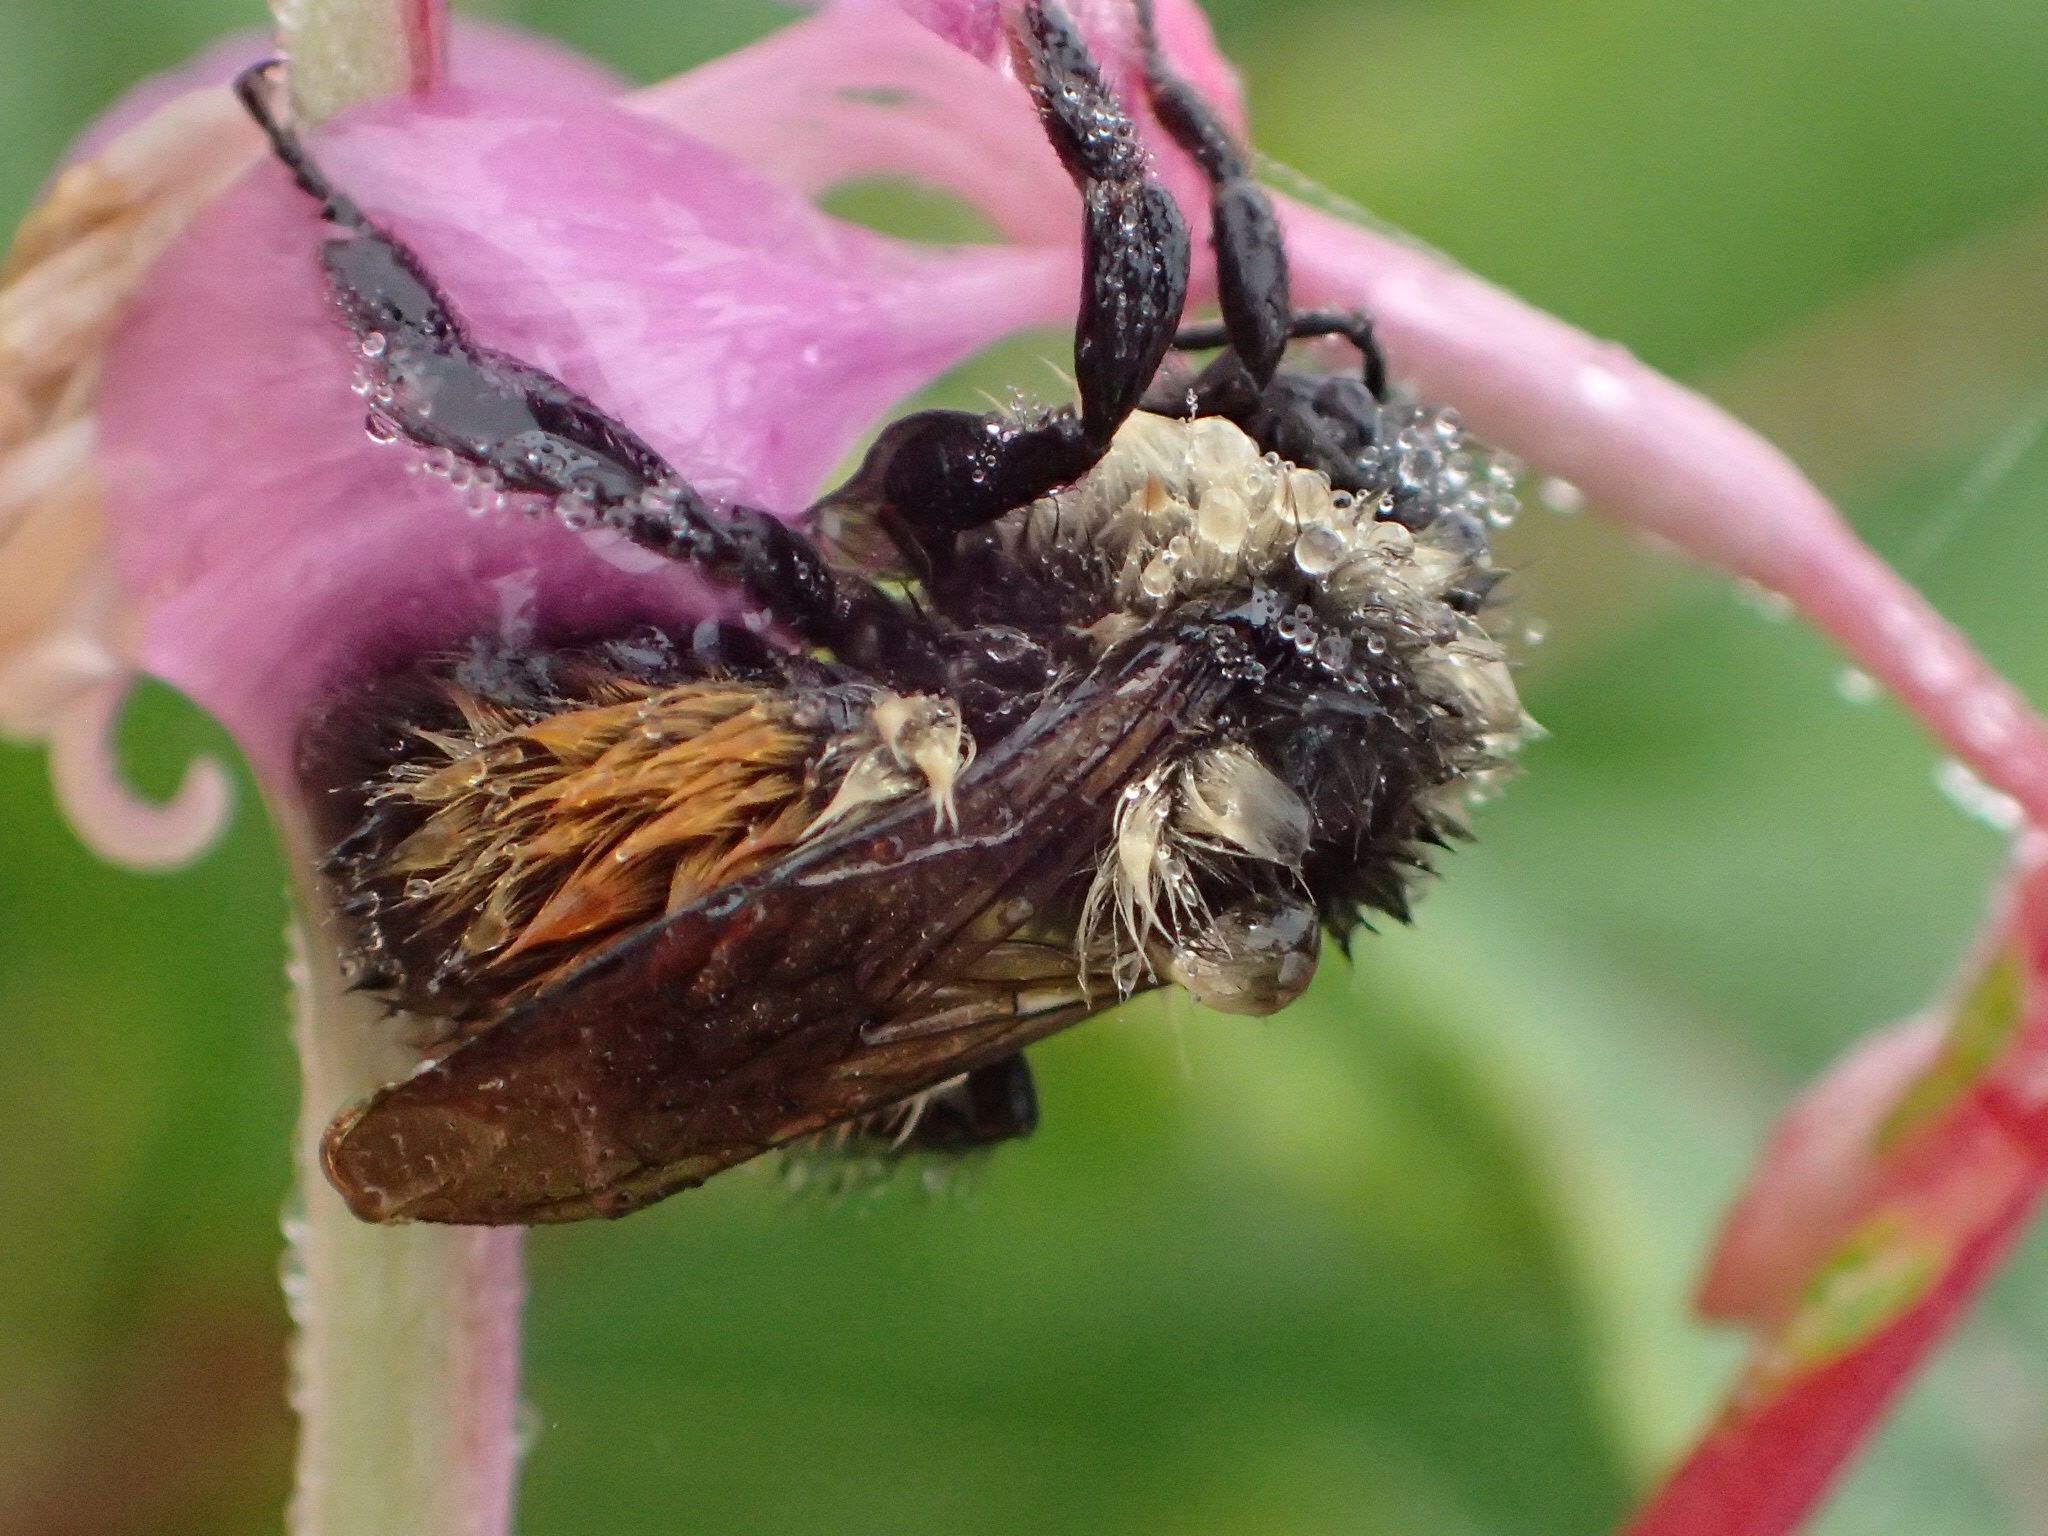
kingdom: Animalia
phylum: Arthropoda
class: Insecta
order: Hymenoptera
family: Apidae
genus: Bombus
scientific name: Bombus ternarius
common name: Tri-colored bumble bee
